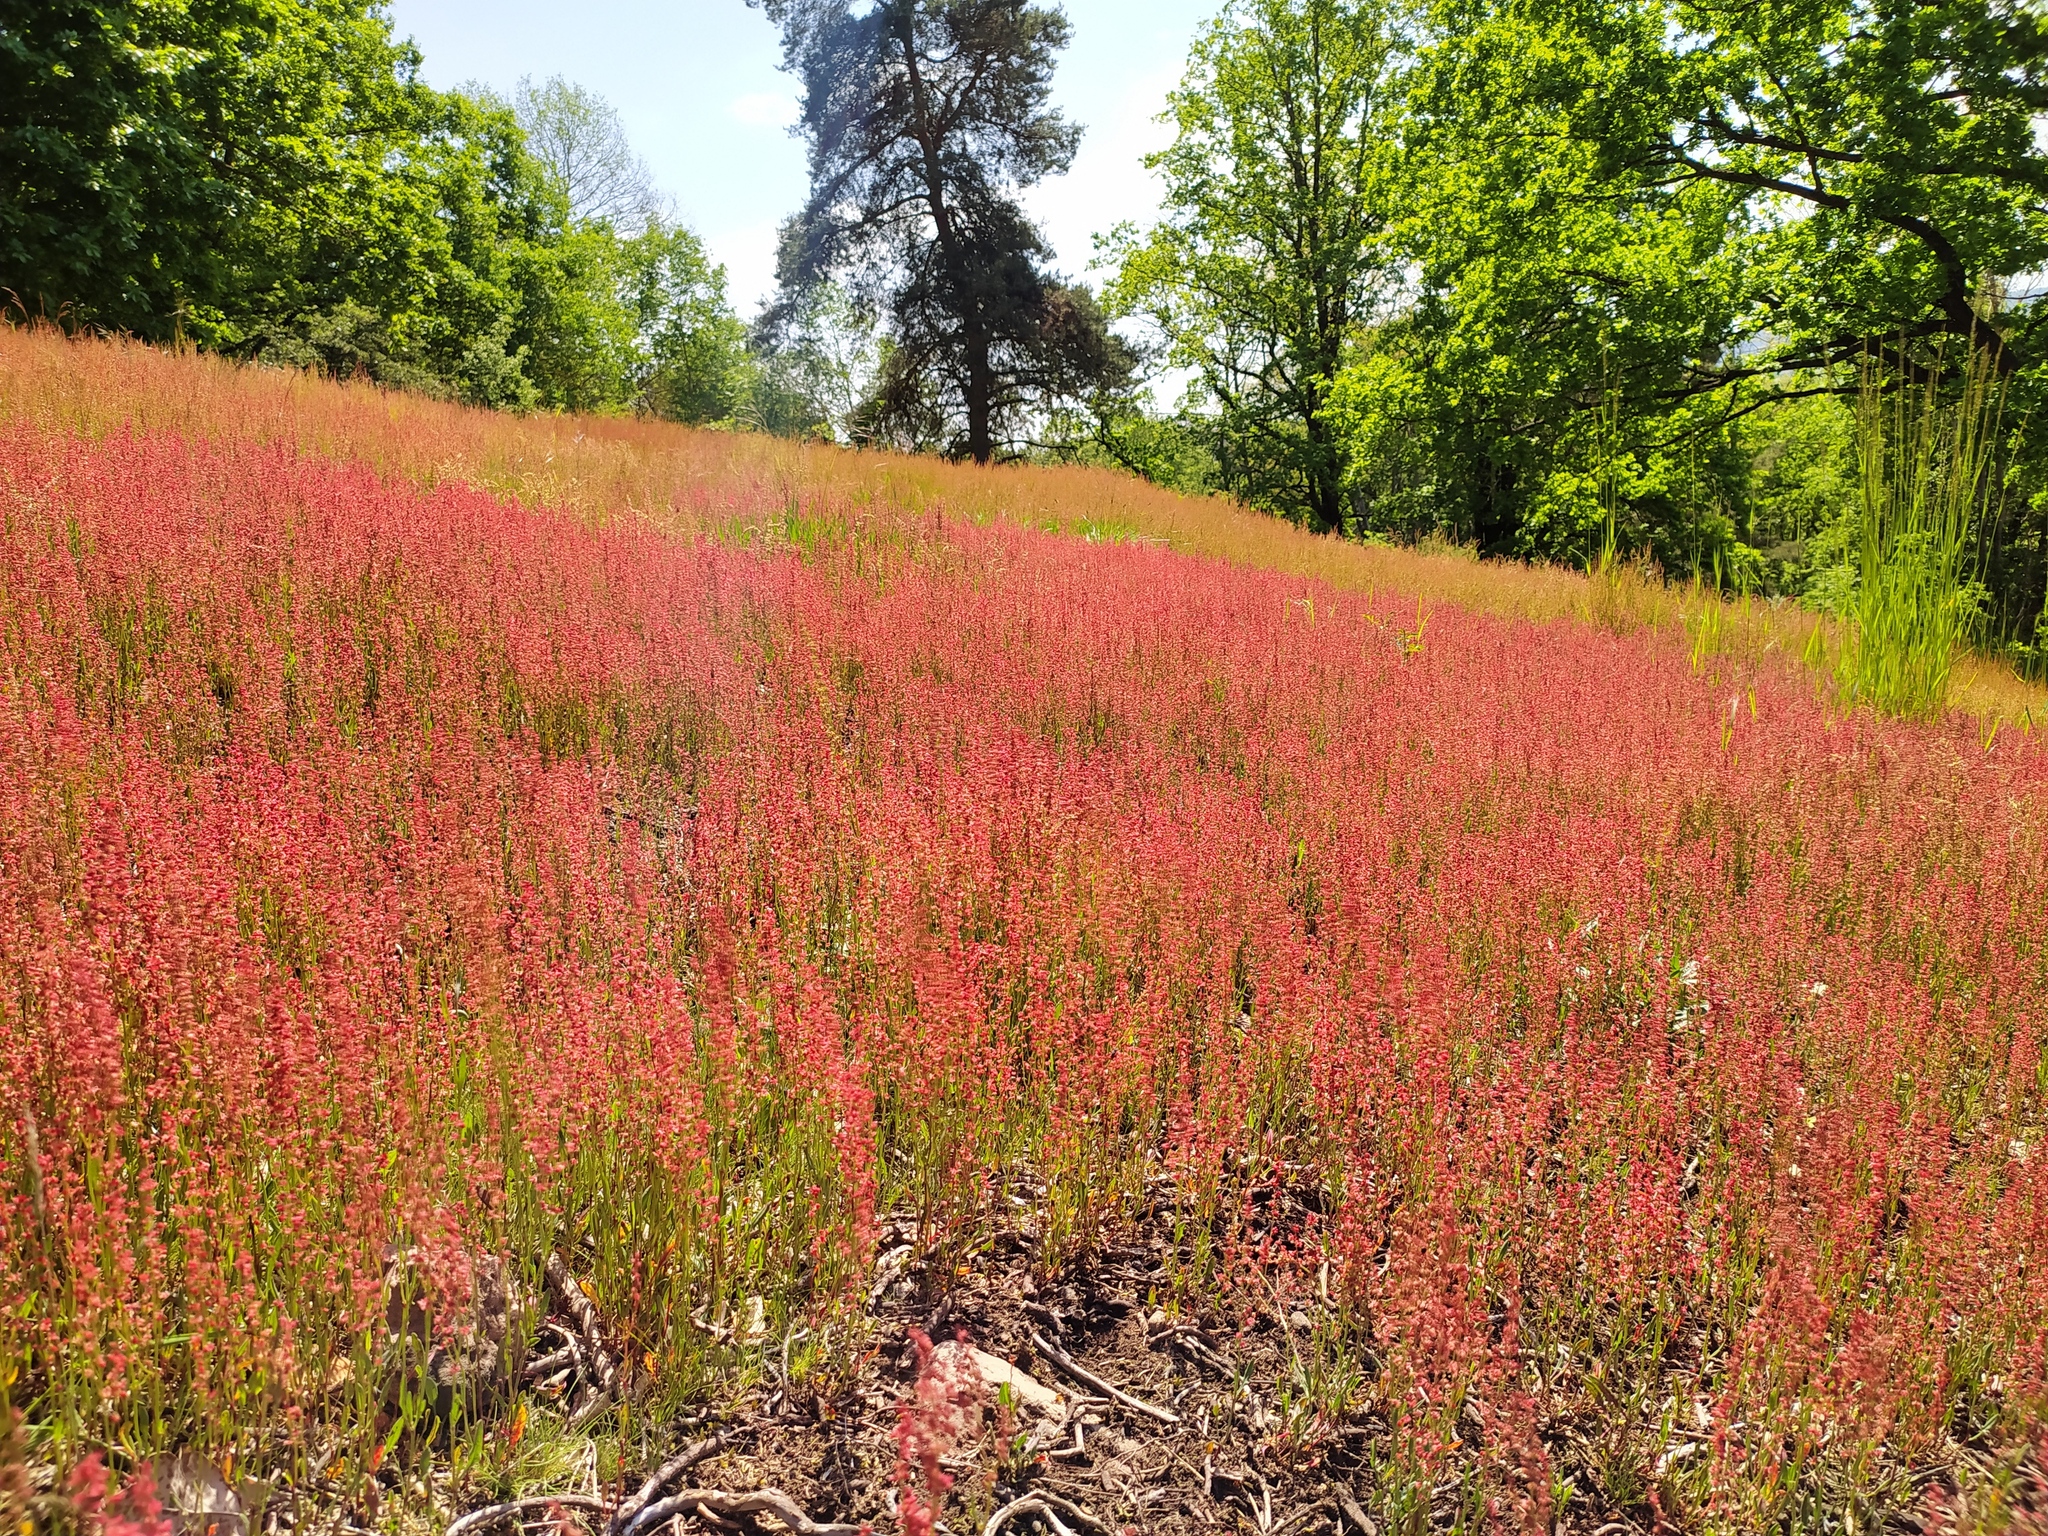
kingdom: Plantae
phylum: Tracheophyta
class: Magnoliopsida
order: Caryophyllales
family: Polygonaceae
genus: Rumex
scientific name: Rumex acetosella
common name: Common sheep sorrel
